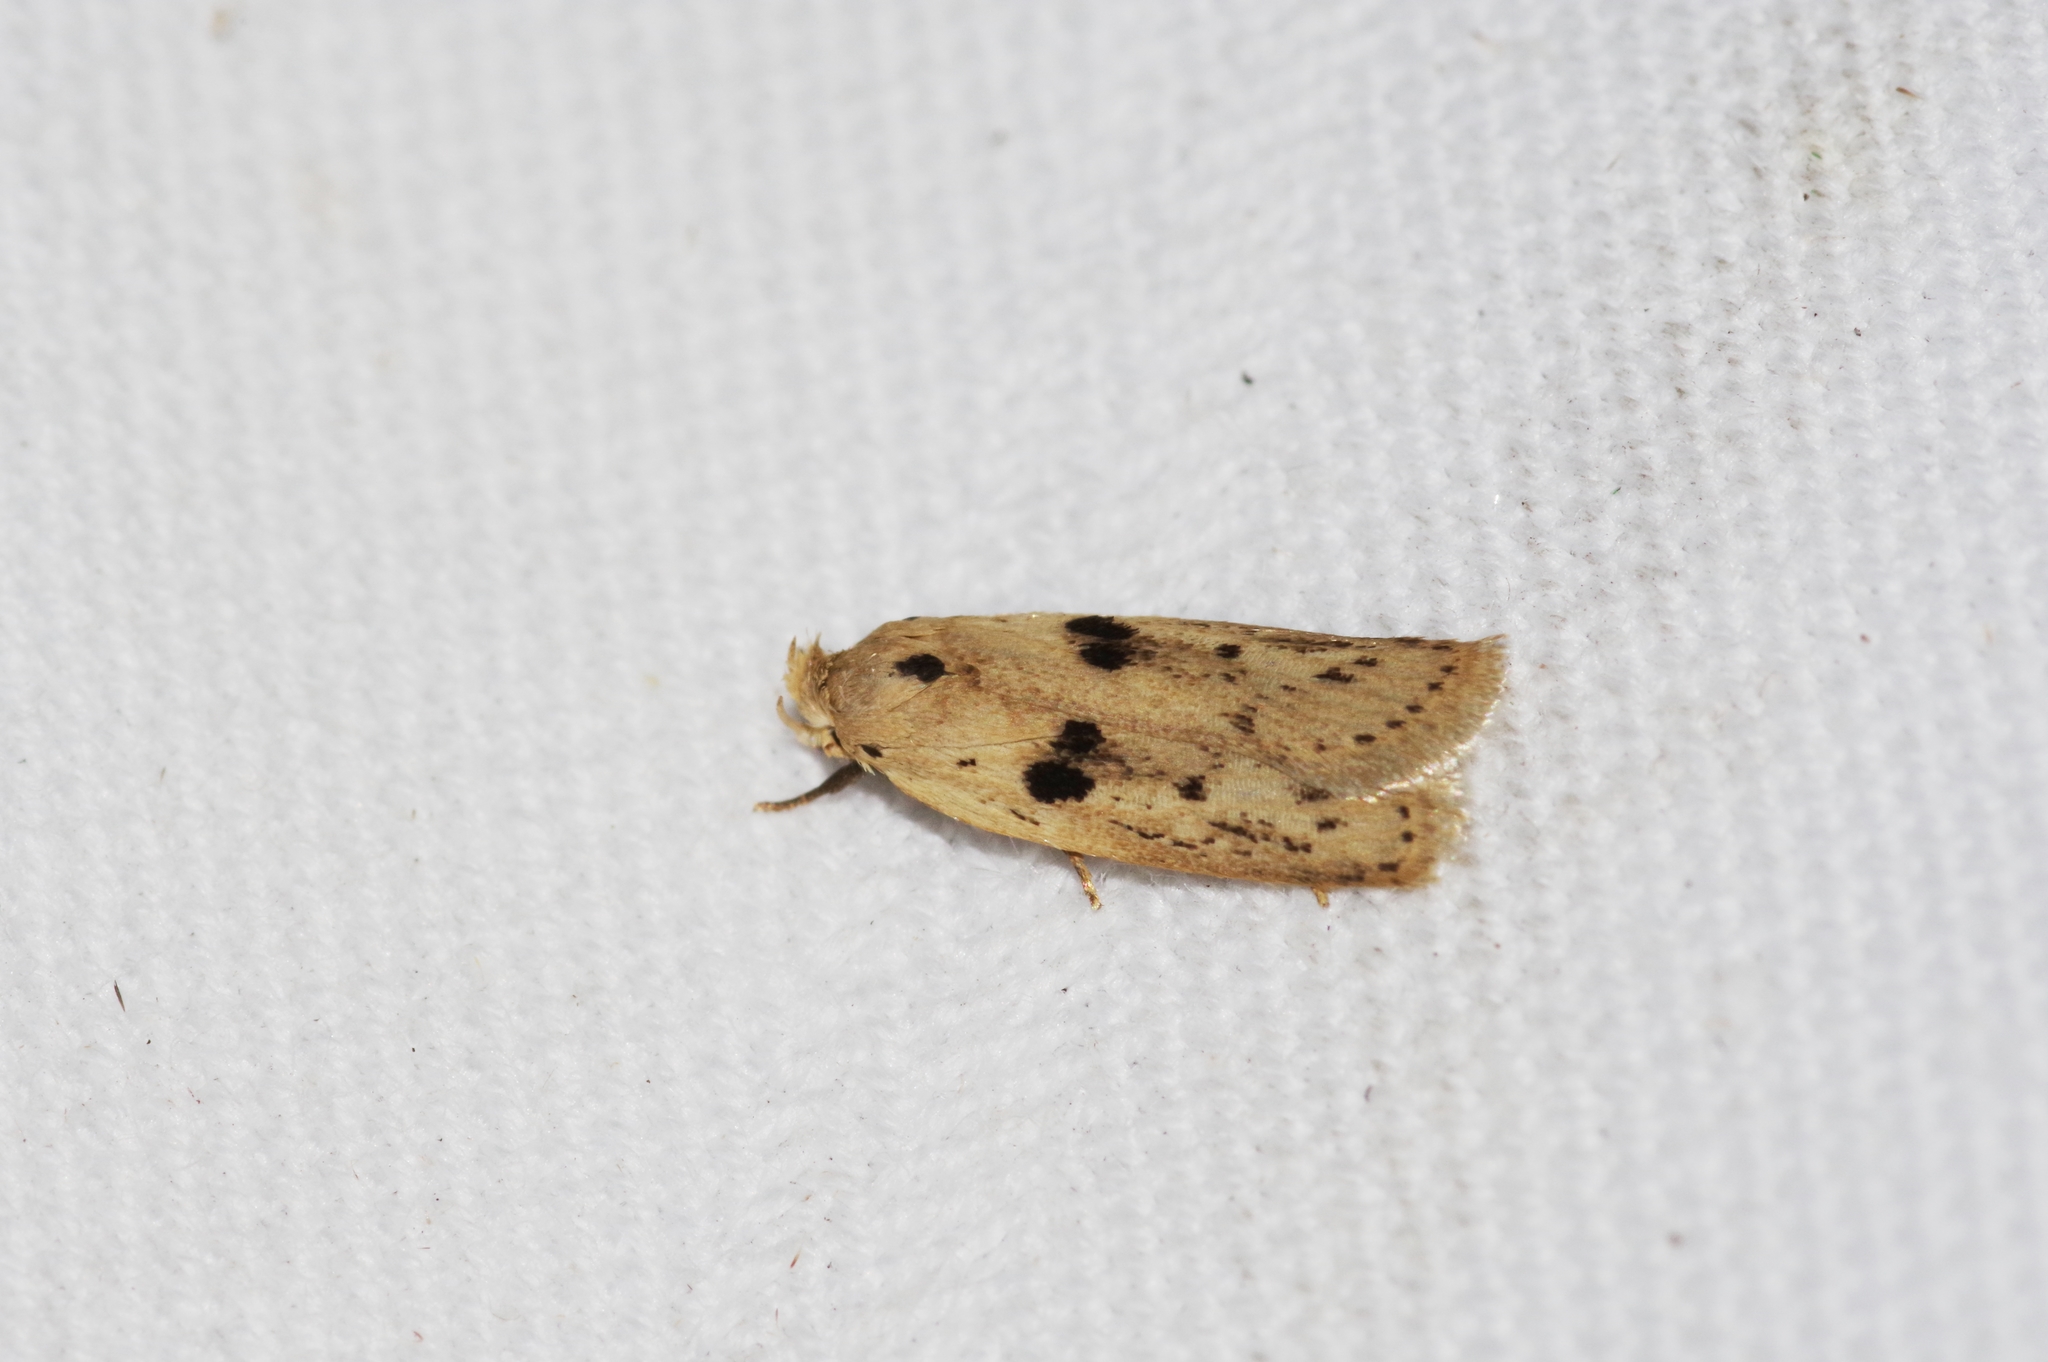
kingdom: Animalia
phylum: Arthropoda
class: Insecta
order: Lepidoptera
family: Peleopodidae
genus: Scythropiodes
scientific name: Scythropiodes issikii
